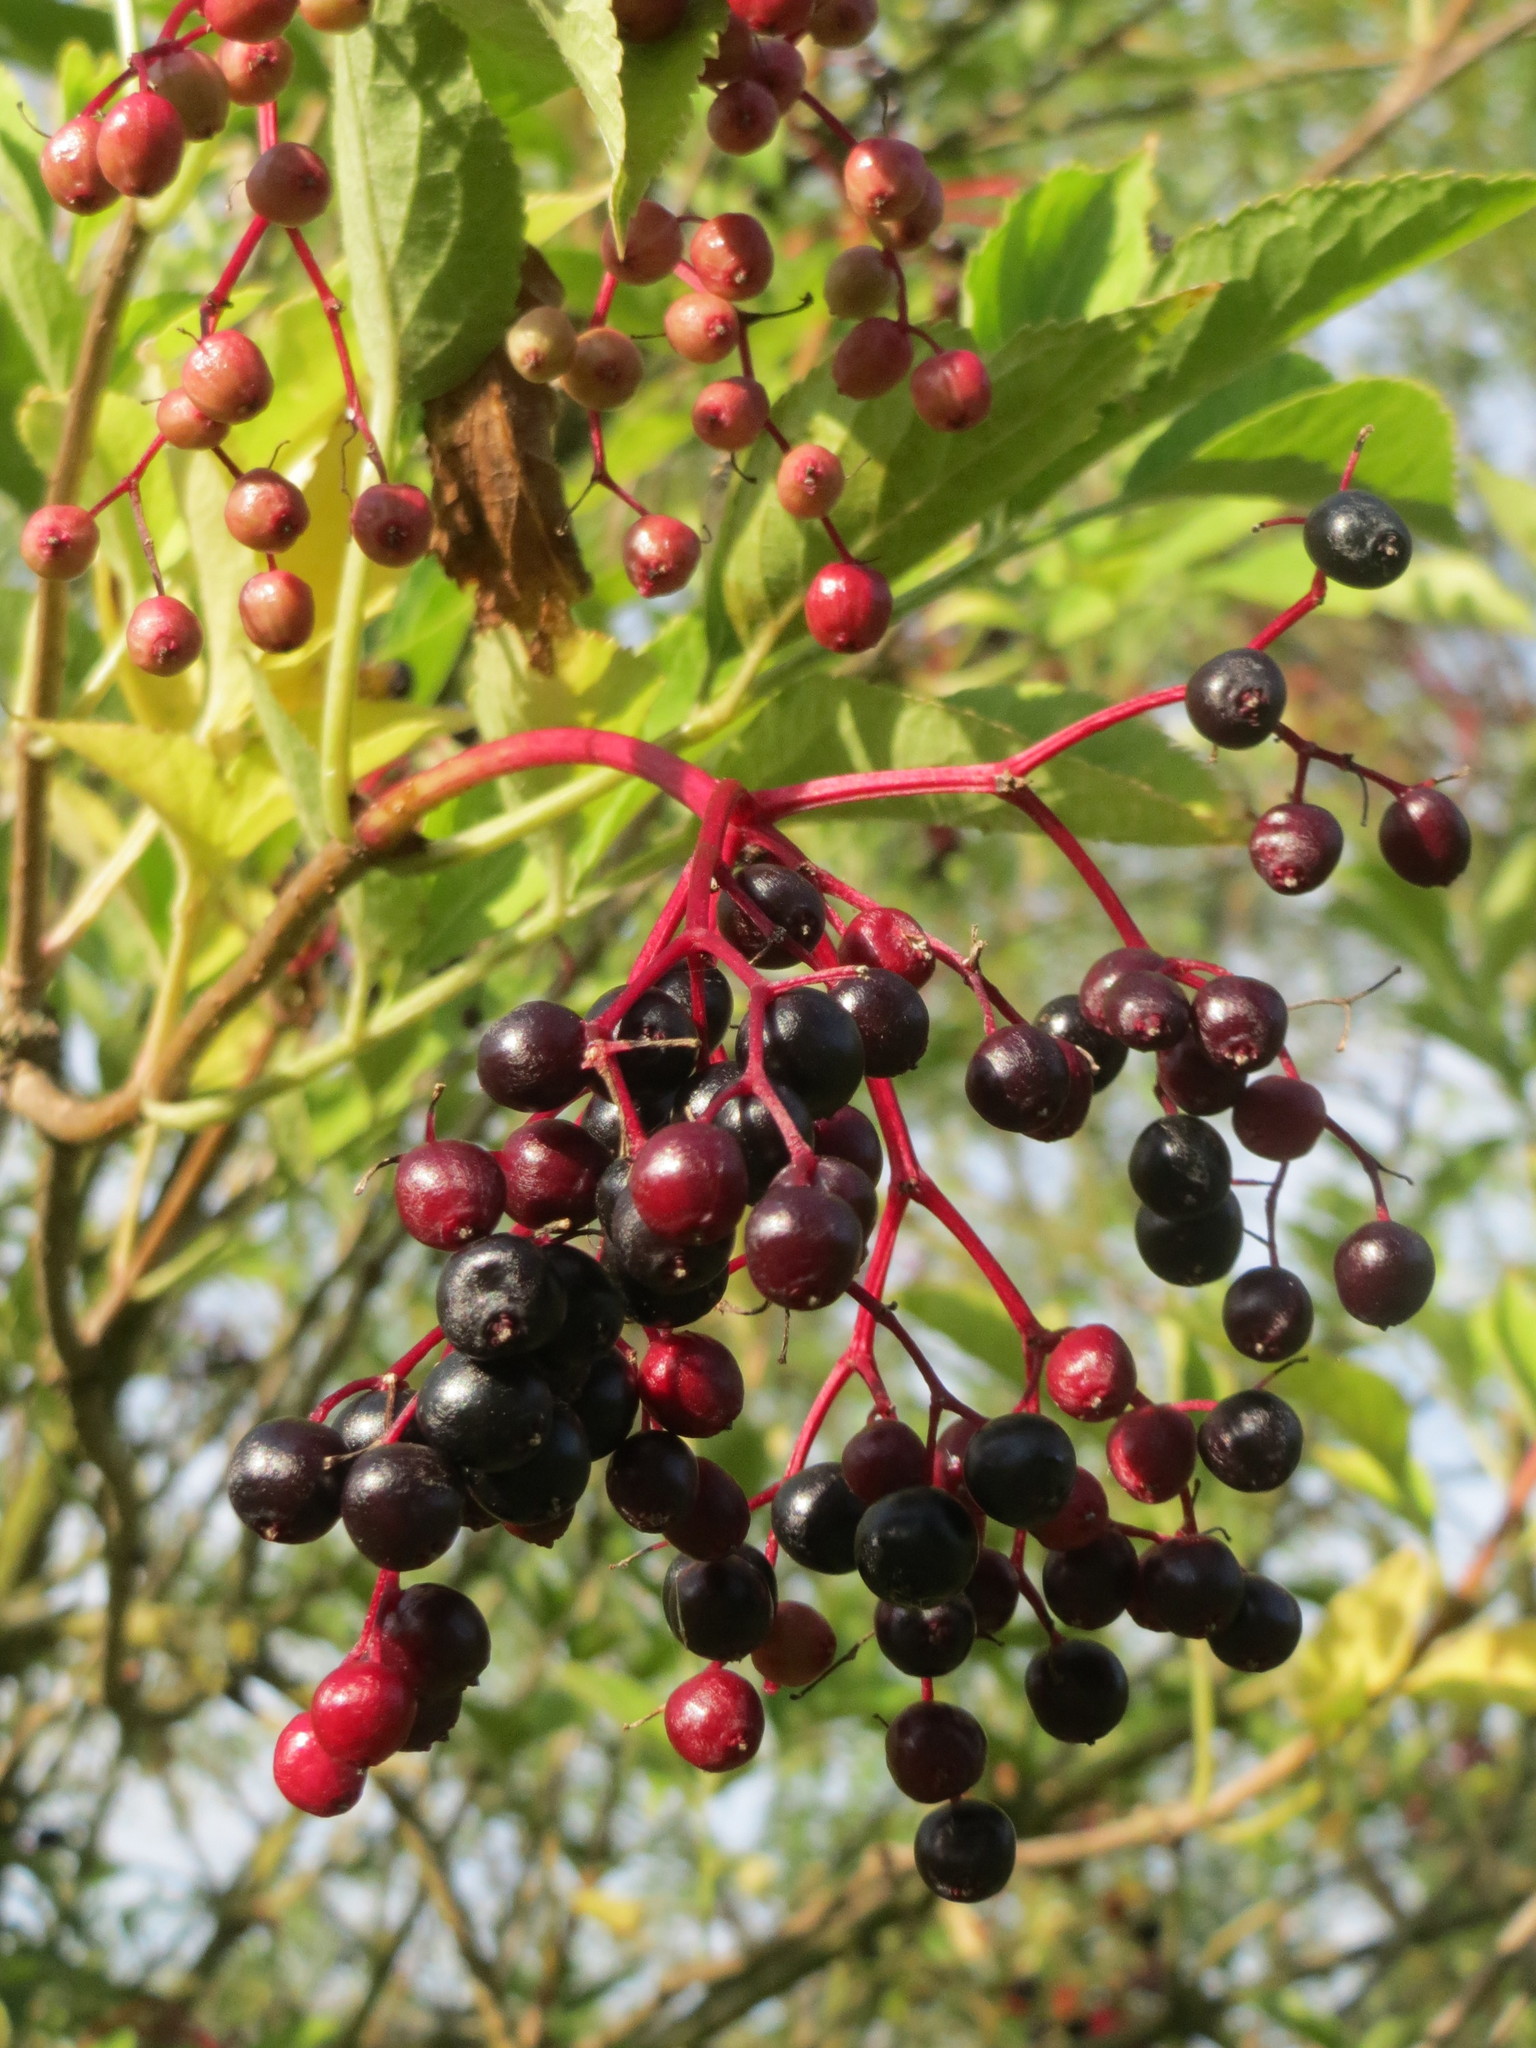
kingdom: Plantae
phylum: Tracheophyta
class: Magnoliopsida
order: Dipsacales
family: Viburnaceae
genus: Sambucus
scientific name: Sambucus nigra
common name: Elder
